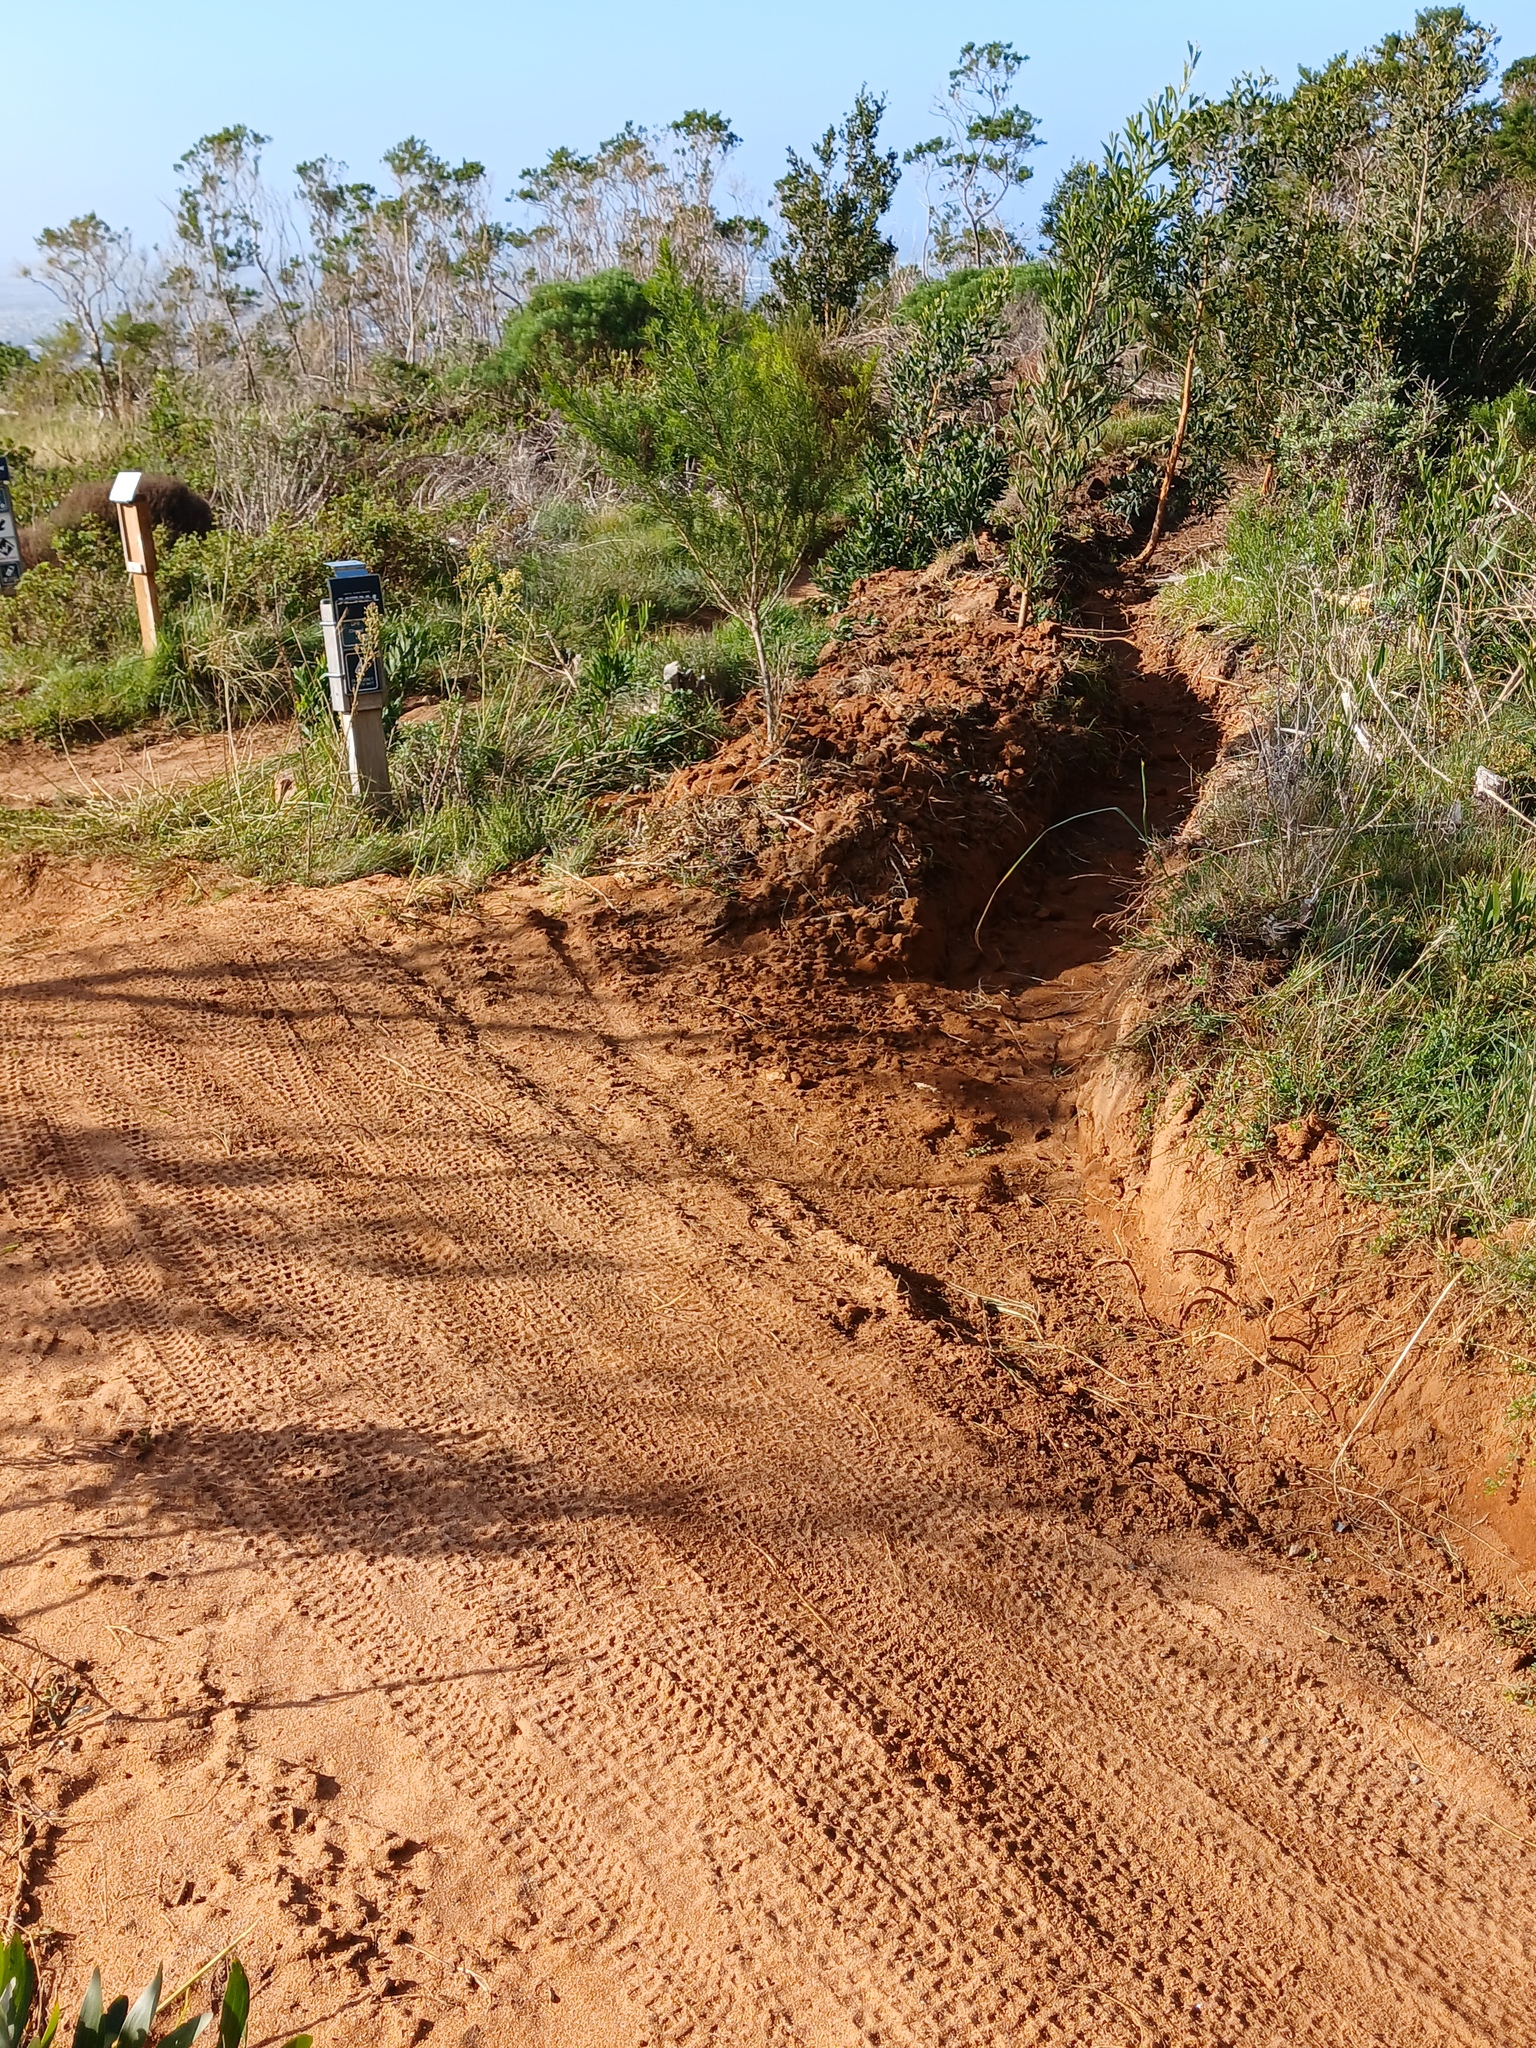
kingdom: Plantae
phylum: Tracheophyta
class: Magnoliopsida
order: Fabales
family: Fabaceae
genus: Psoralea
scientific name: Psoralea pinnata
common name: African scurfpea
